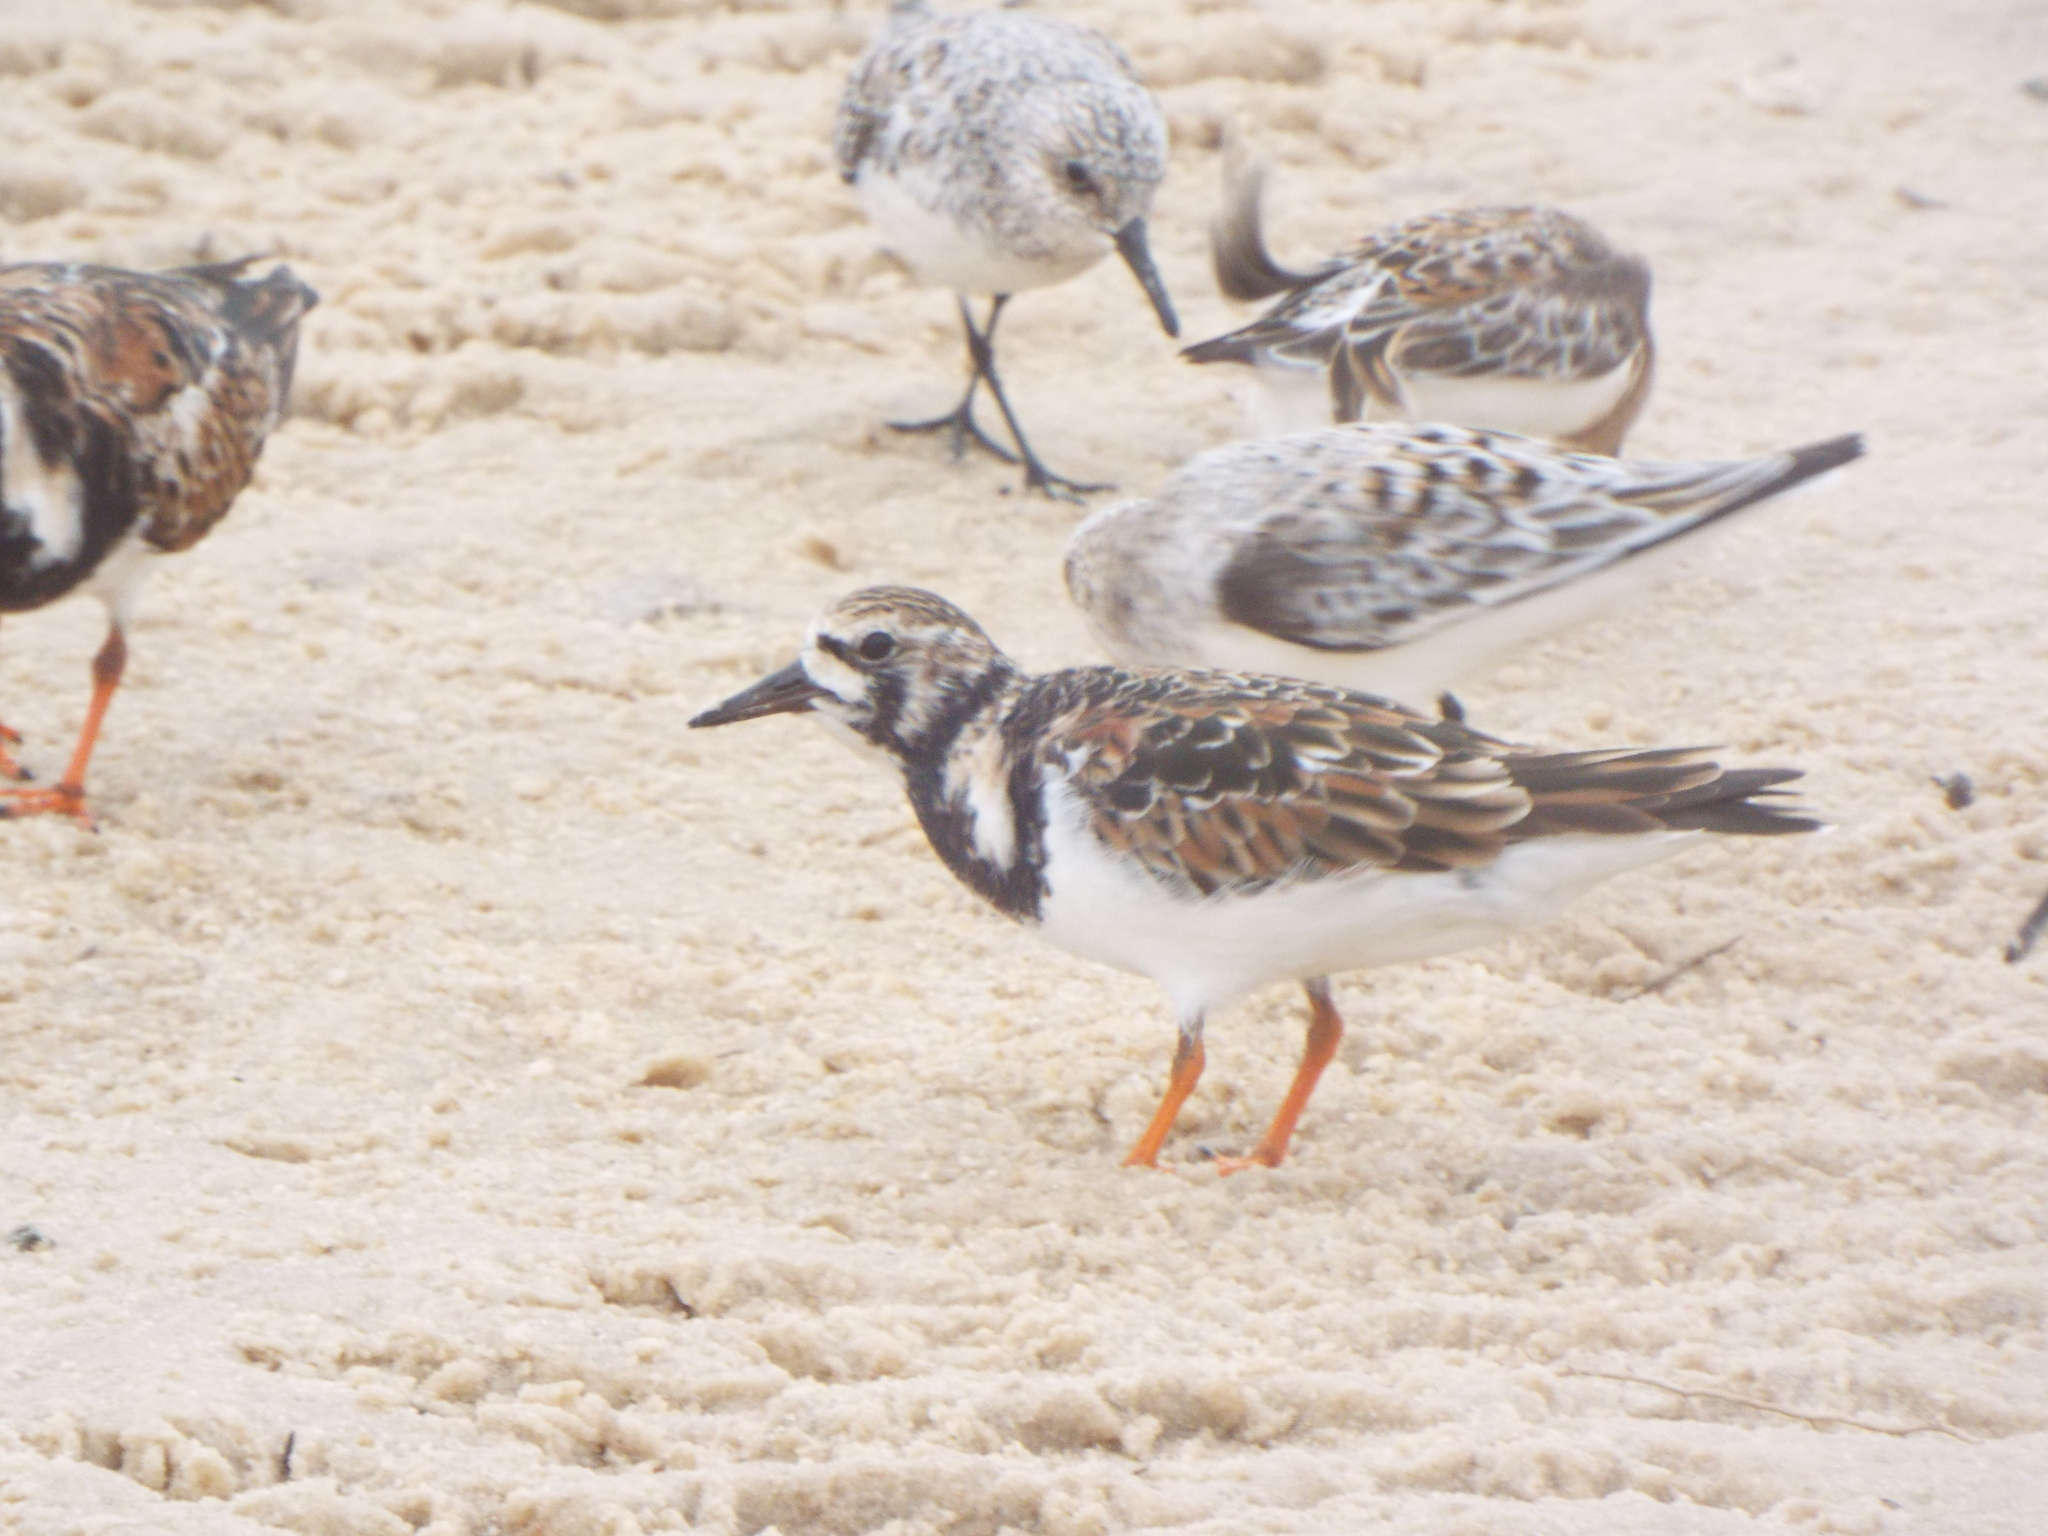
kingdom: Animalia
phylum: Chordata
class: Aves
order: Charadriiformes
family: Scolopacidae
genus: Arenaria
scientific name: Arenaria interpres
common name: Ruddy turnstone
